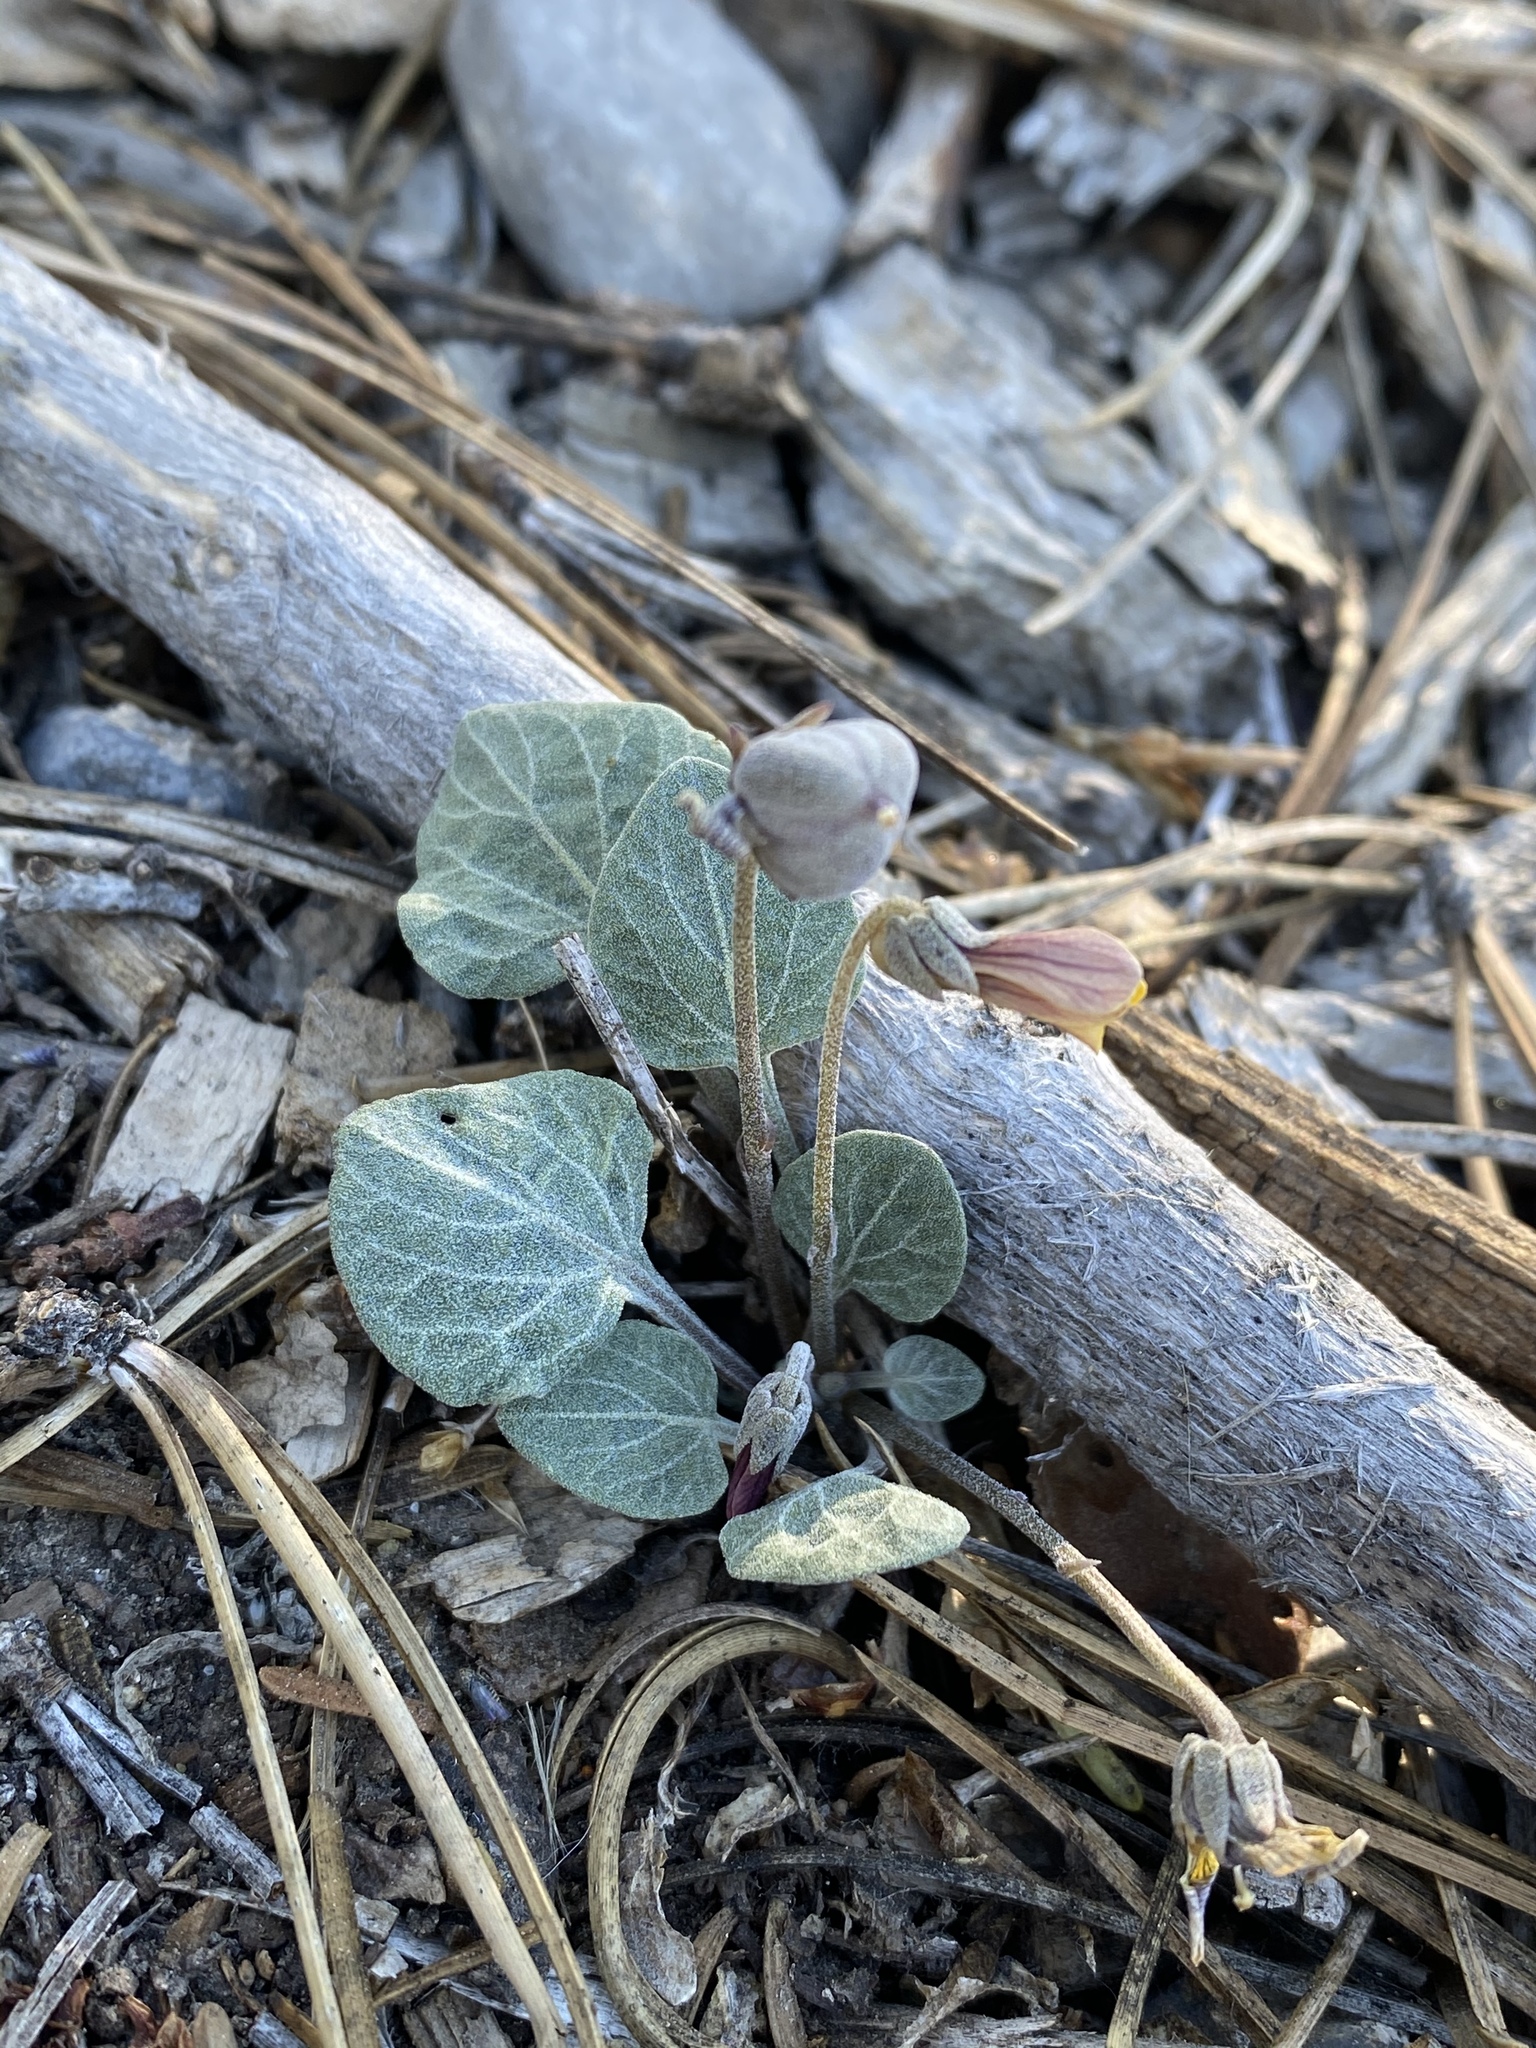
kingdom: Plantae
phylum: Tracheophyta
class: Magnoliopsida
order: Malpighiales
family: Violaceae
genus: Viola
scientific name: Viola charlestonensis
